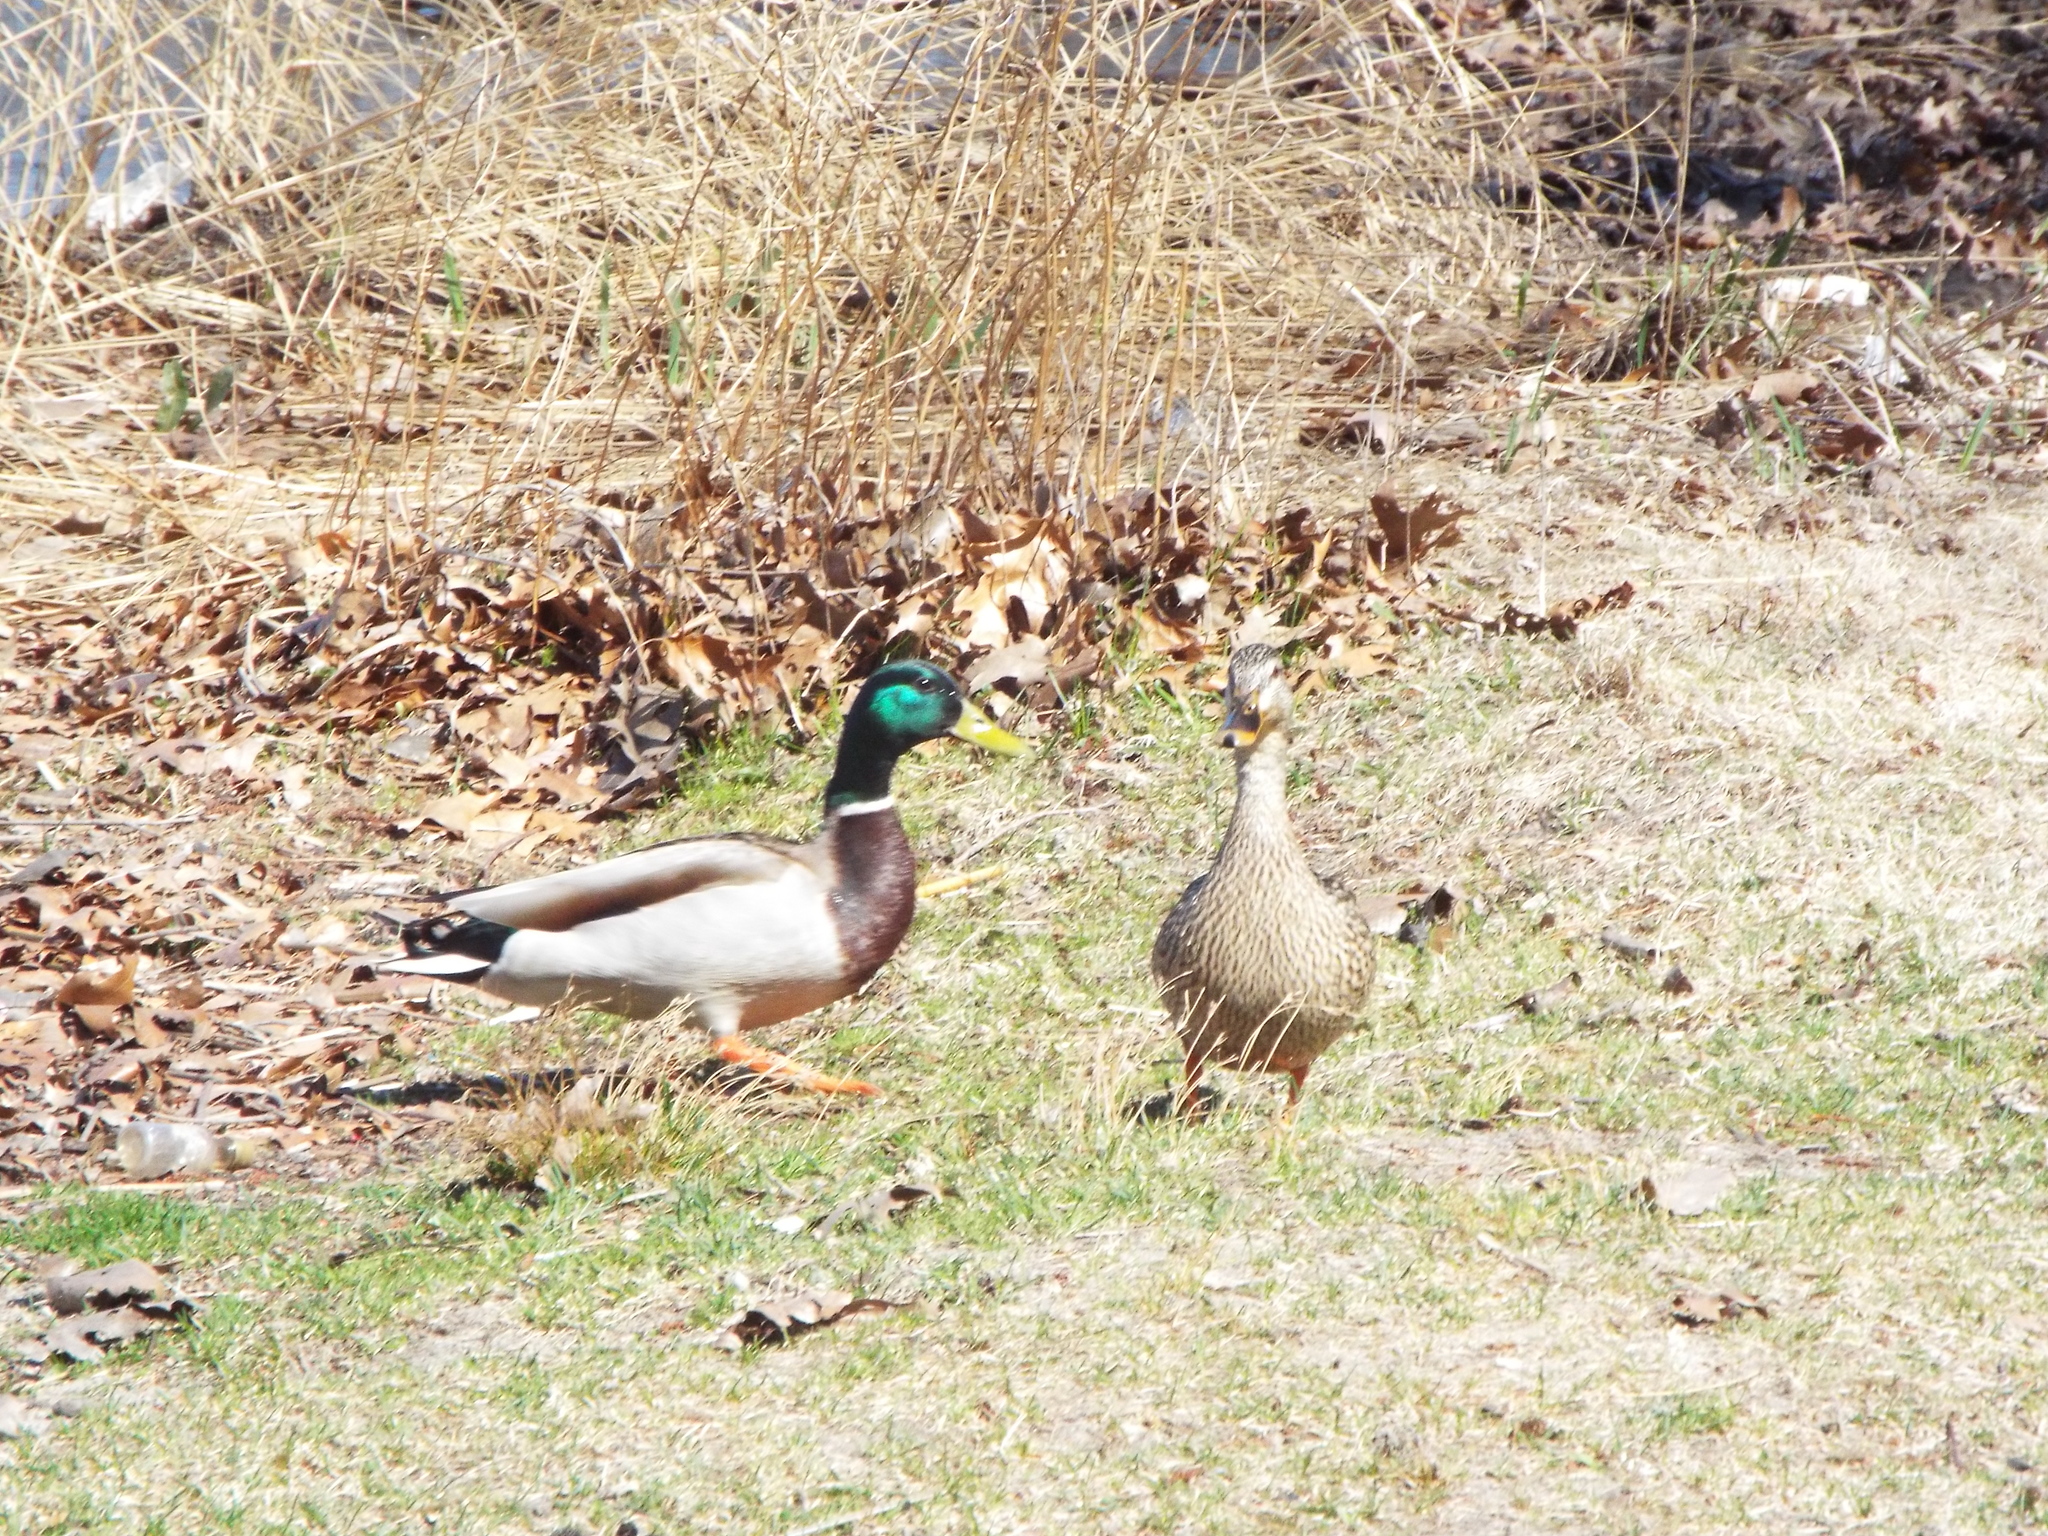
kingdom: Animalia
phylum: Chordata
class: Aves
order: Anseriformes
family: Anatidae
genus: Anas
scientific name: Anas platyrhynchos
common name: Mallard
